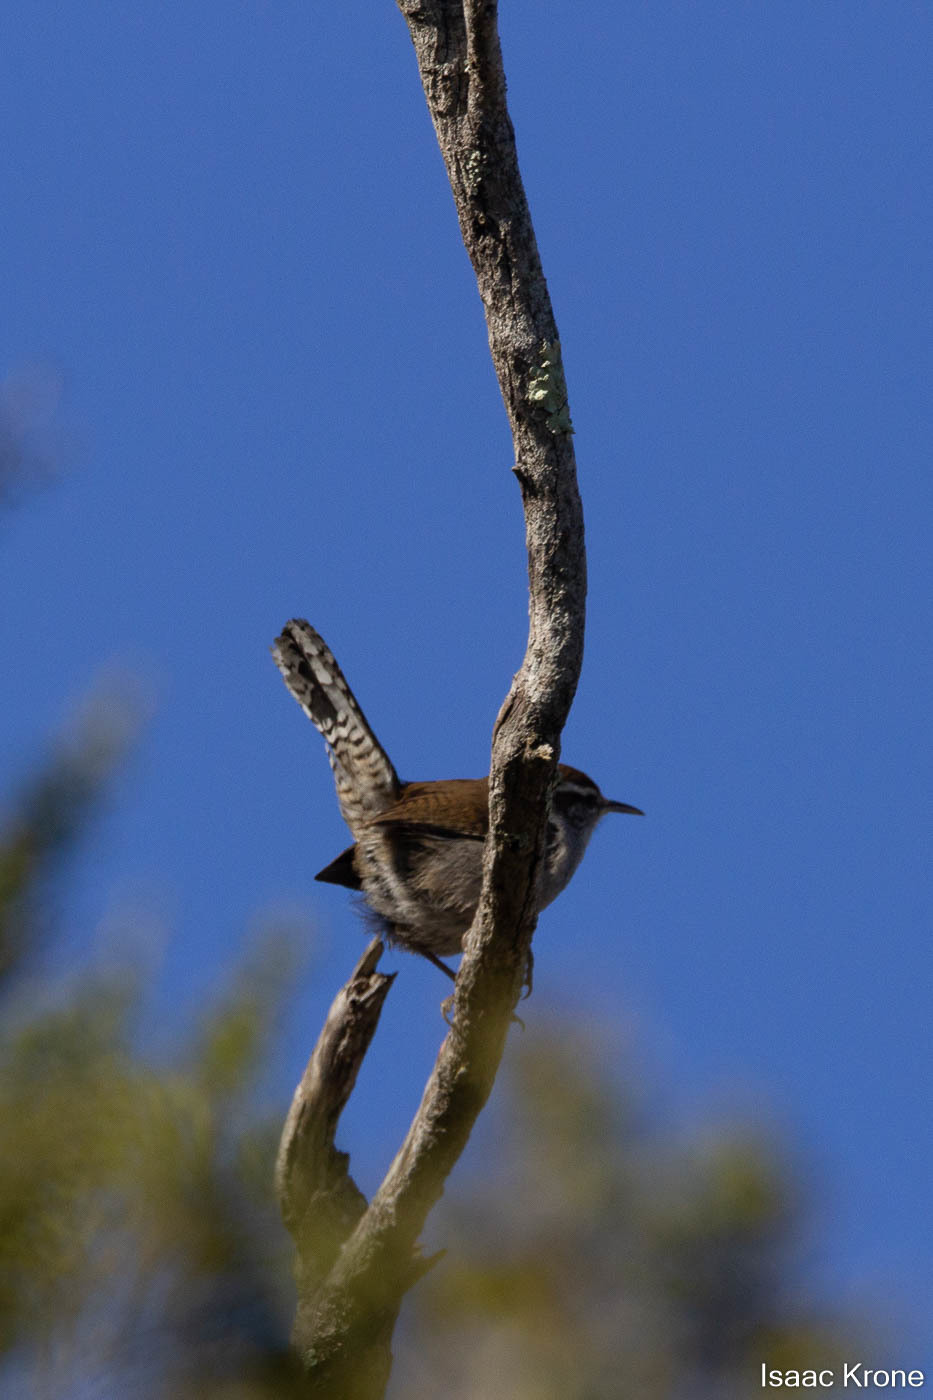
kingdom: Animalia
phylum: Chordata
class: Aves
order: Passeriformes
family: Troglodytidae
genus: Thryomanes
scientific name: Thryomanes bewickii
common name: Bewick's wren
